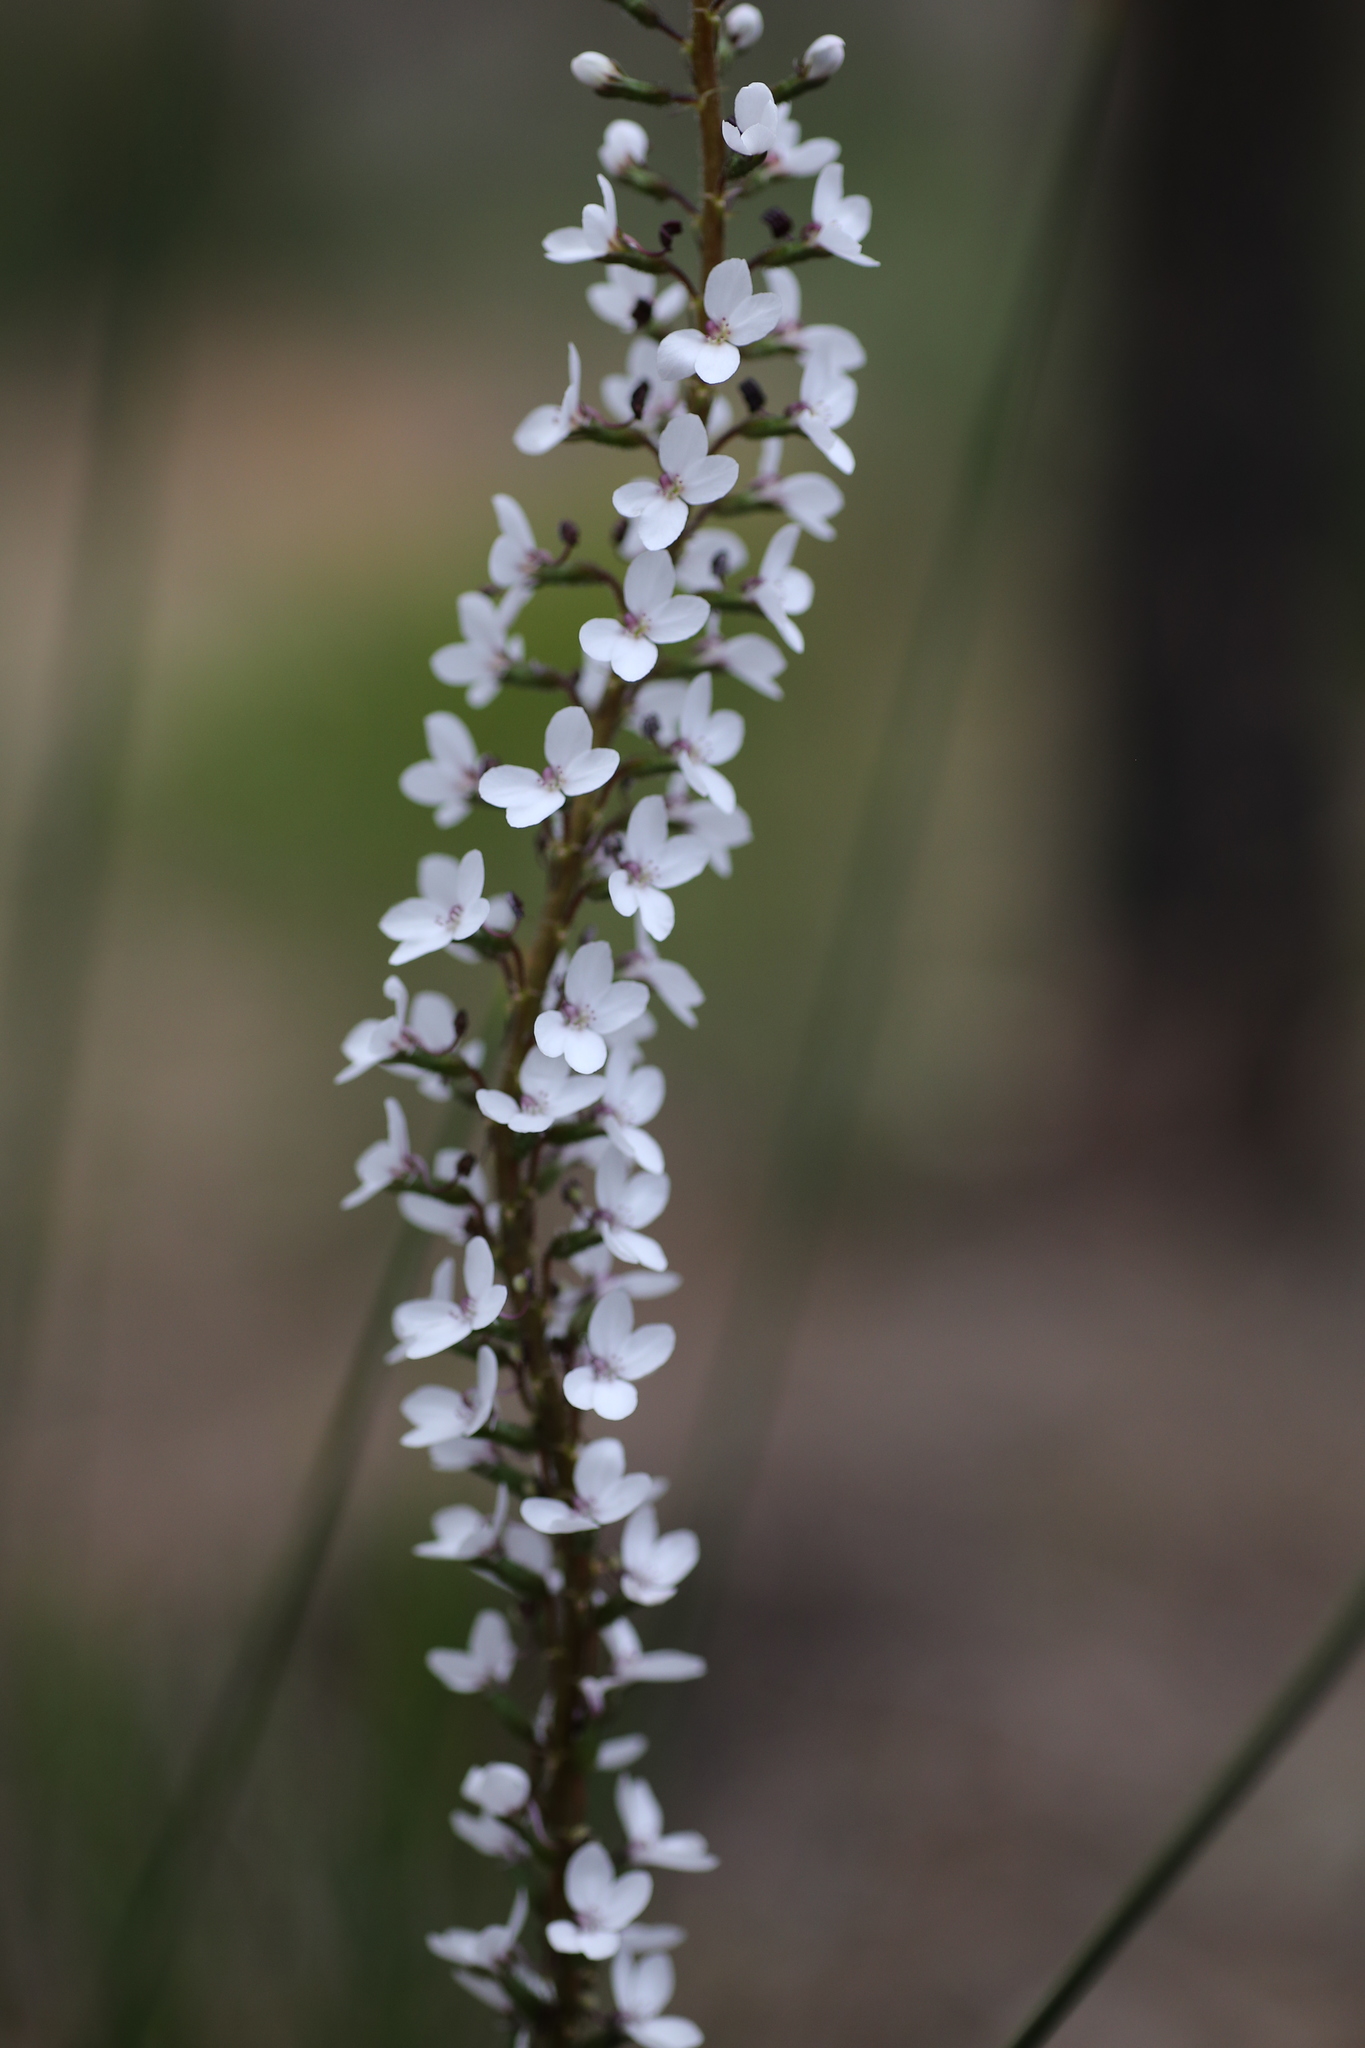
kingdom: Plantae
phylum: Tracheophyta
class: Magnoliopsida
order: Asterales
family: Stylidiaceae
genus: Stylidium
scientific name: Stylidium diversifolium
